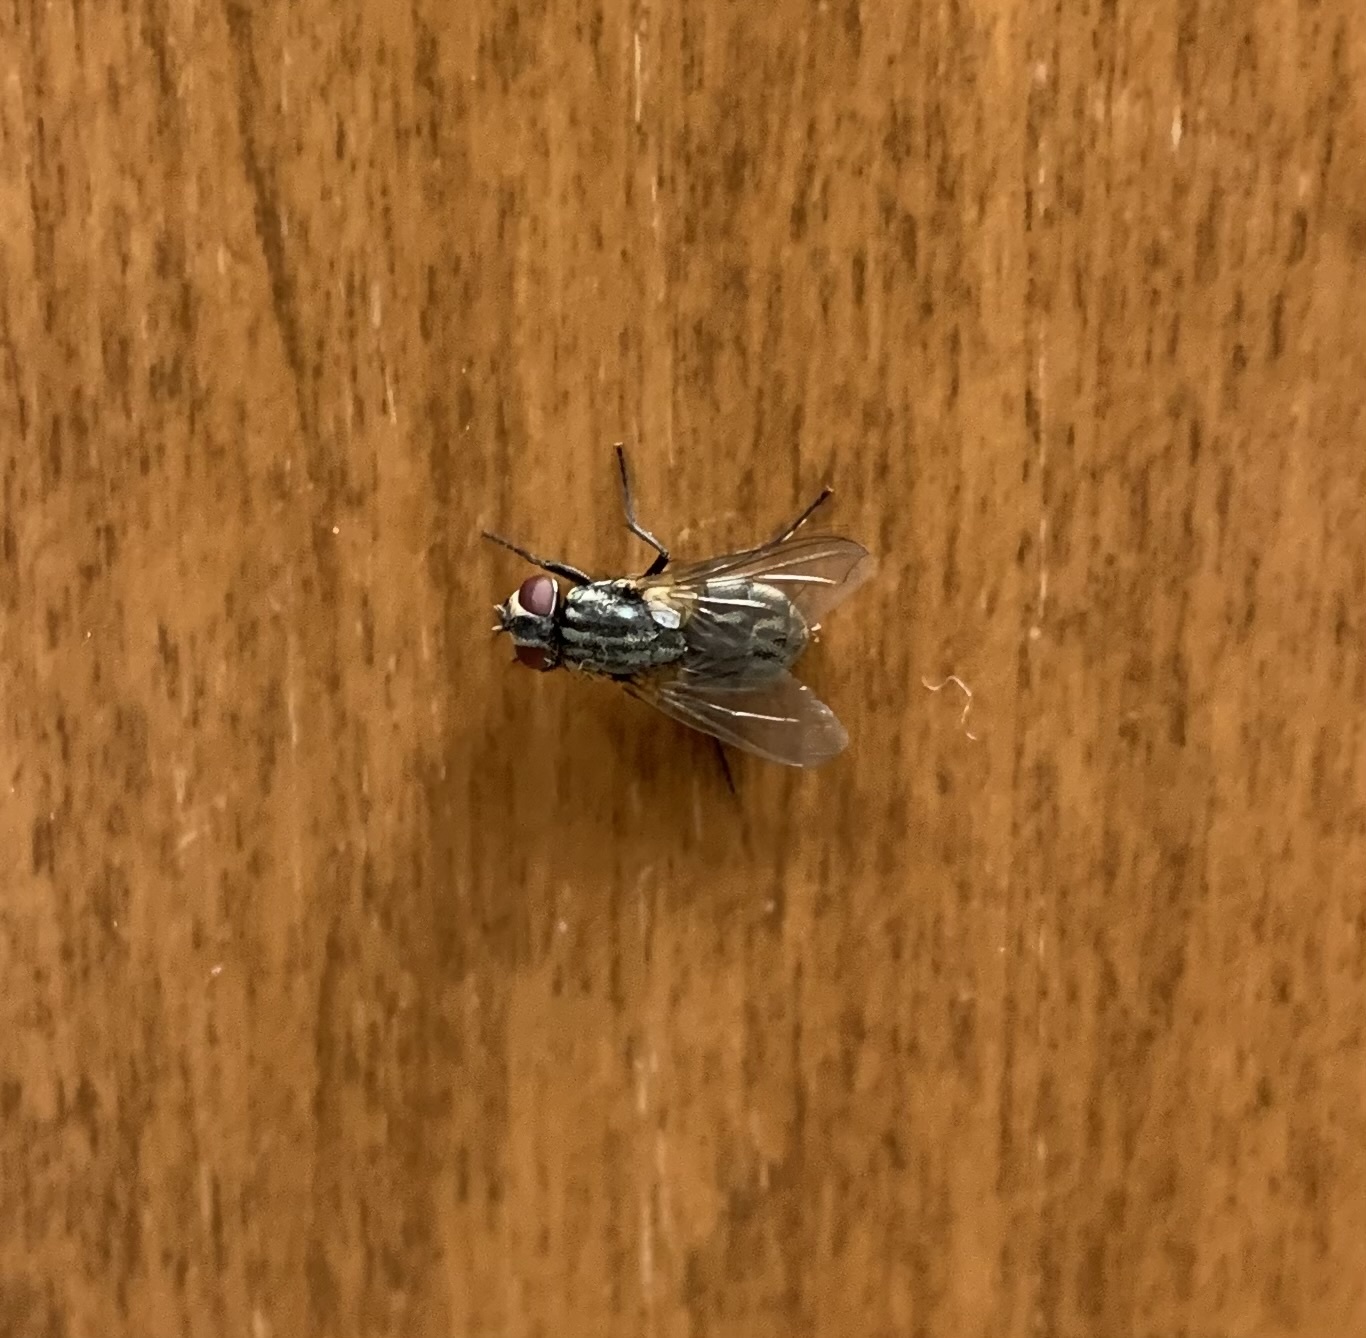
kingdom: Animalia
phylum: Arthropoda
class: Insecta
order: Diptera
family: Muscidae
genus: Musca
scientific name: Musca domestica
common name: House fly
